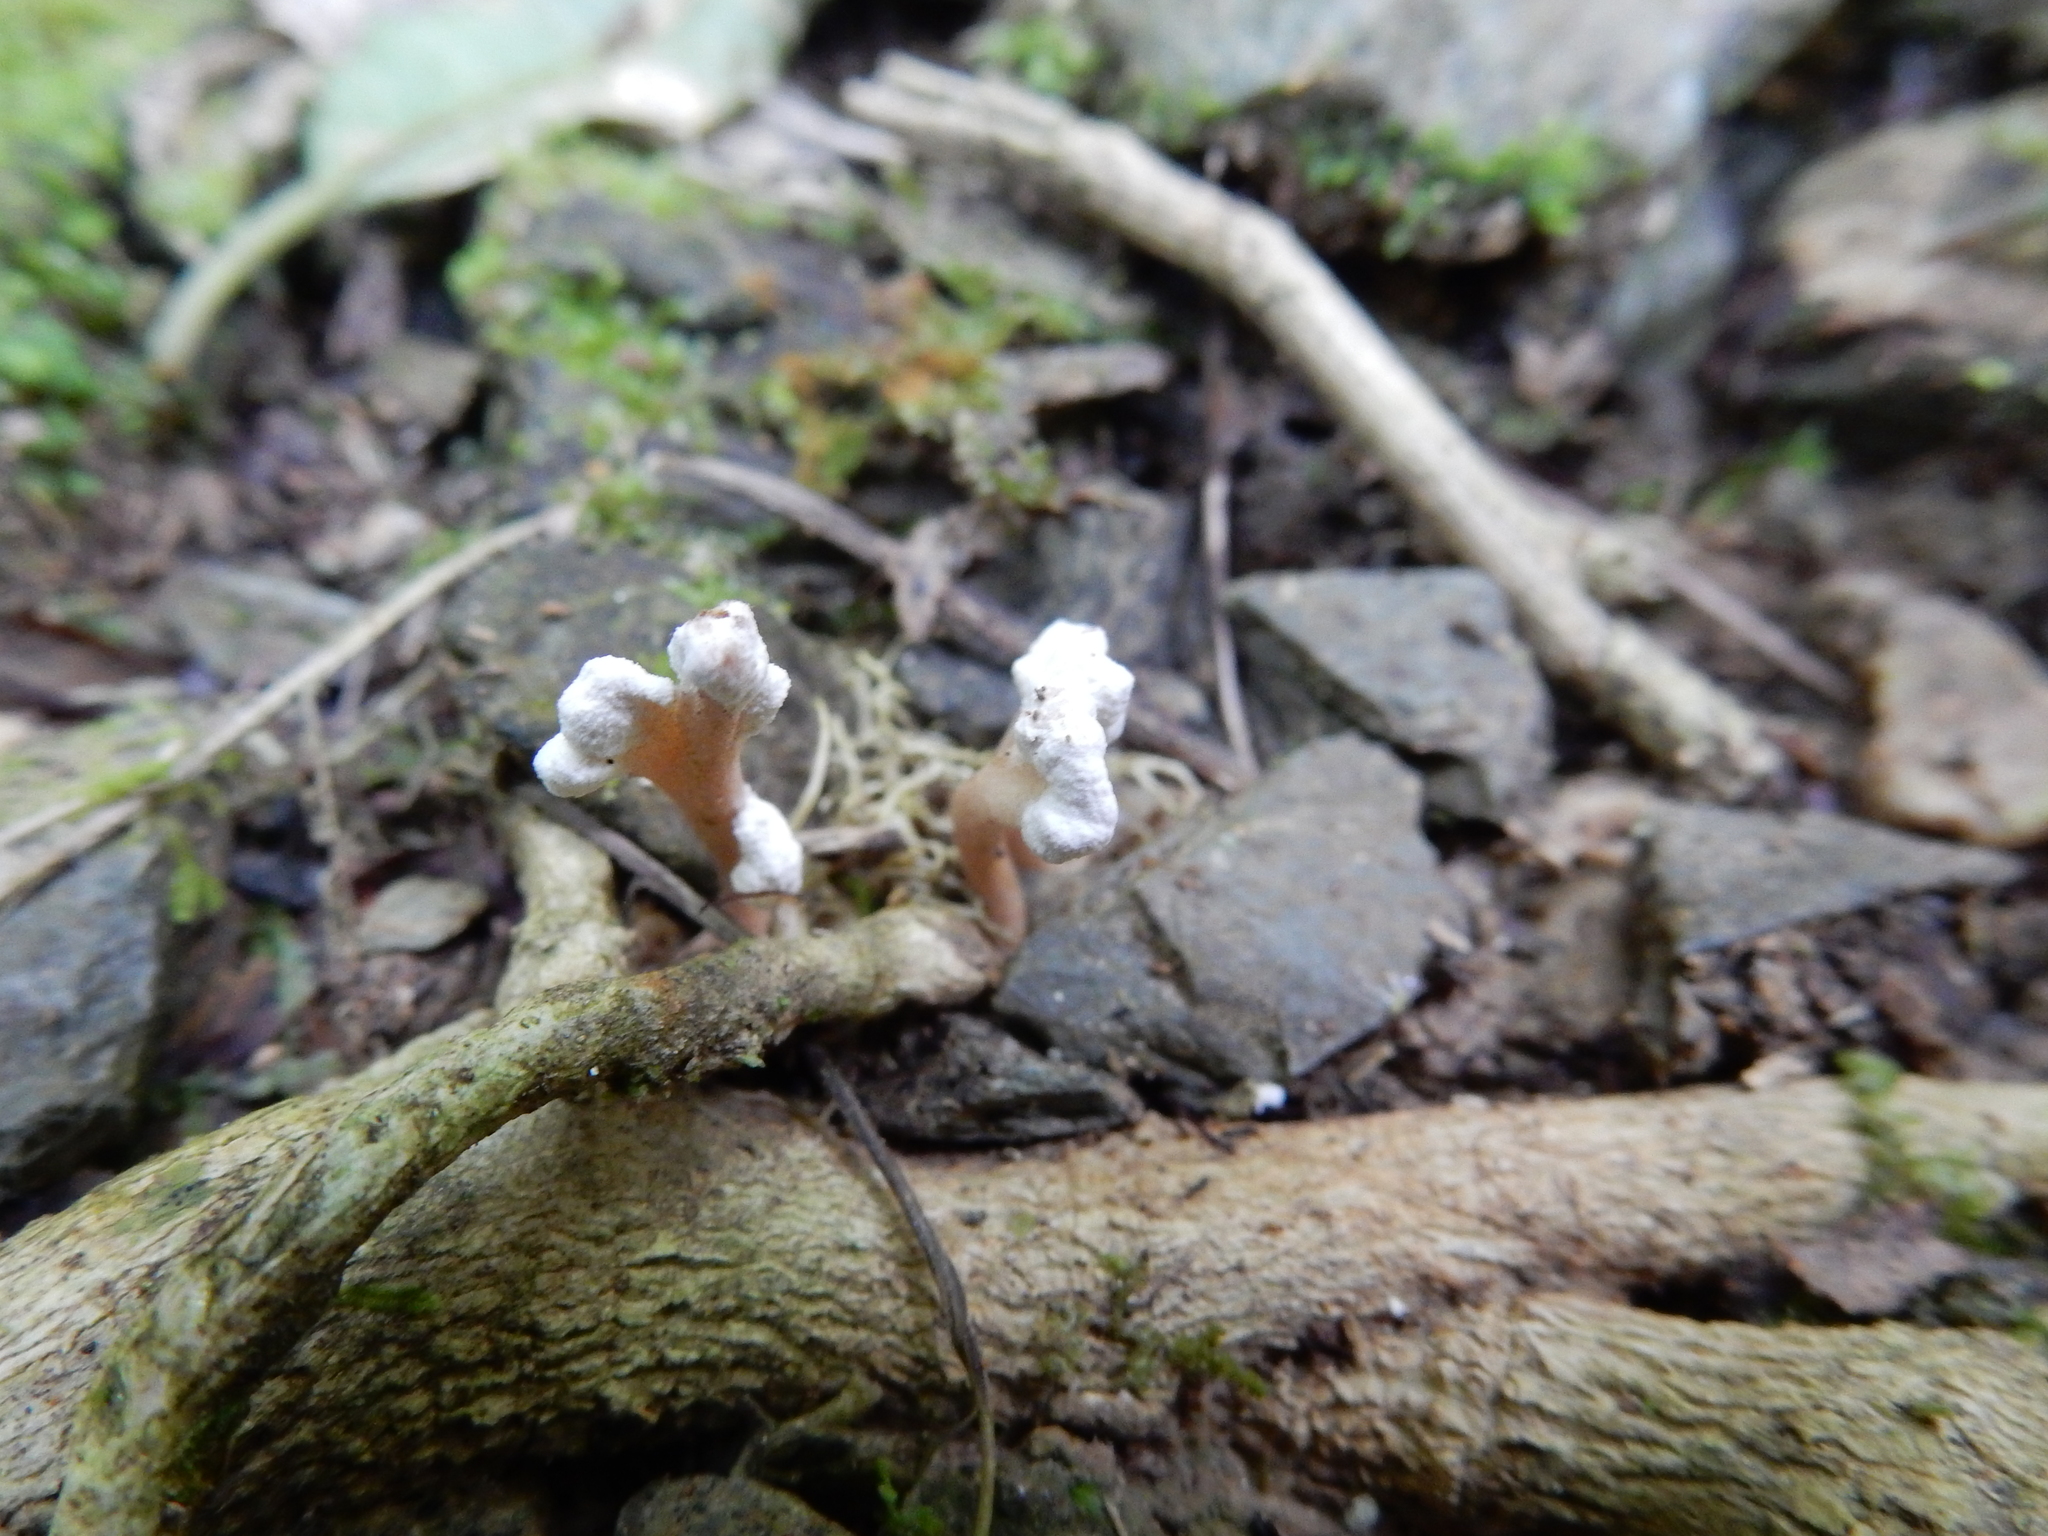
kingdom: Fungi
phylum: Ascomycota
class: Sordariomycetes
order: Hypocreales
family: Cordycipitaceae
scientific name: Cordycipitaceae
